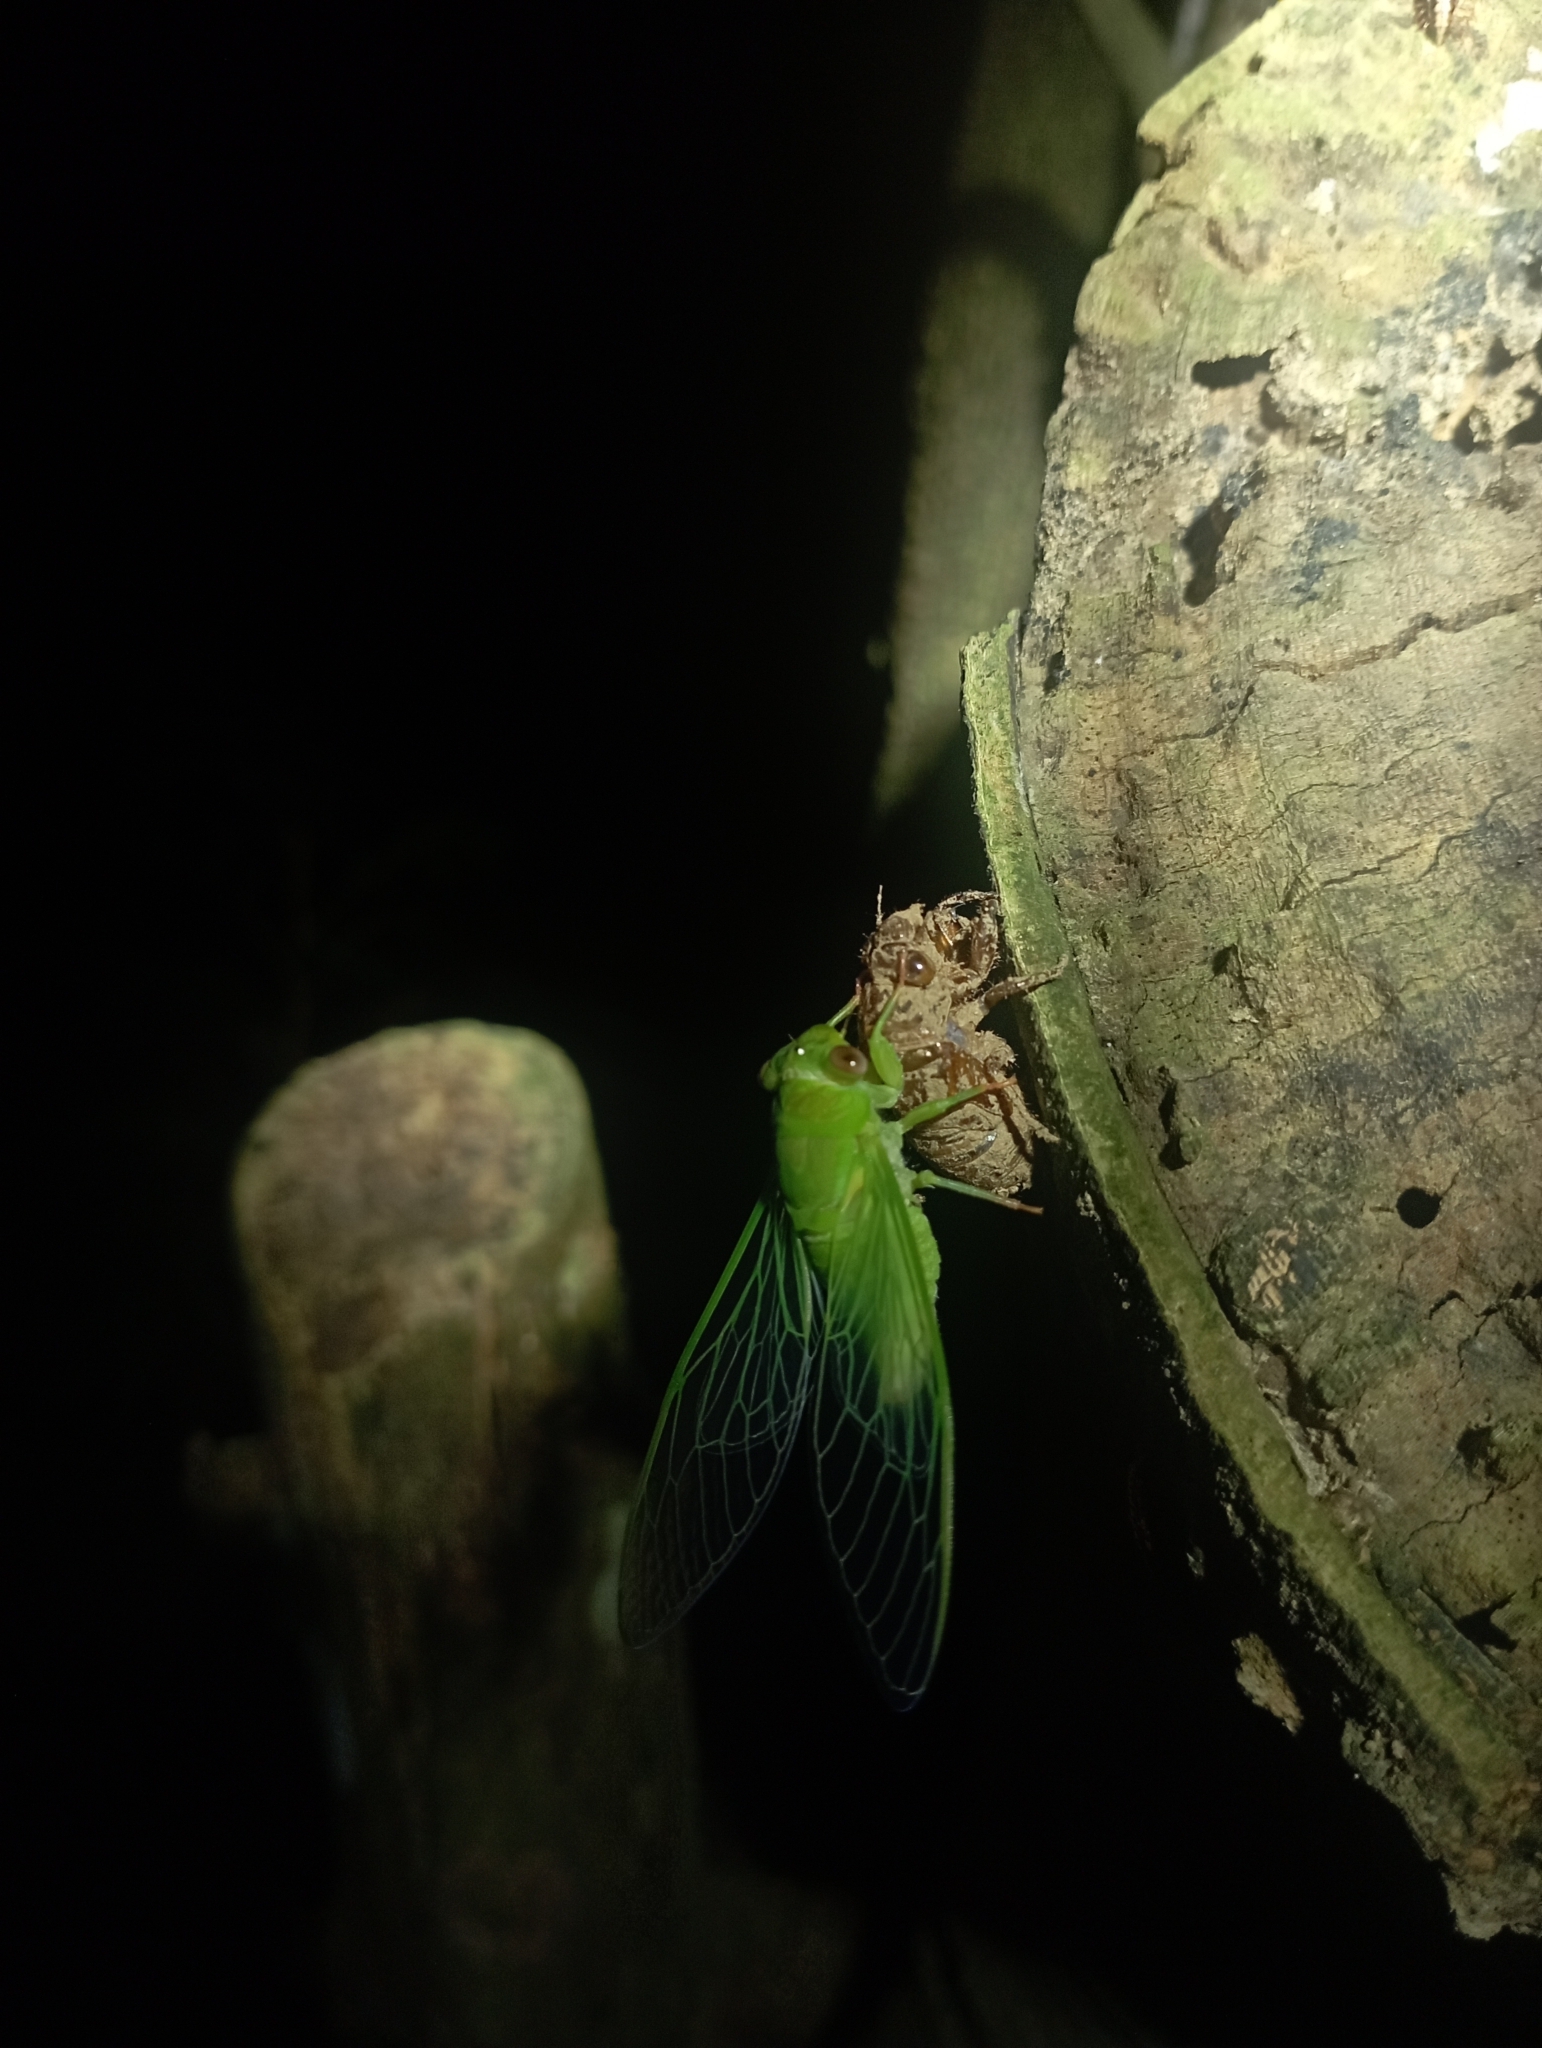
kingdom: Animalia
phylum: Arthropoda
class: Insecta
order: Hemiptera
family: Cicadidae
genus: Chremistica
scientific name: Chremistica ochracea
